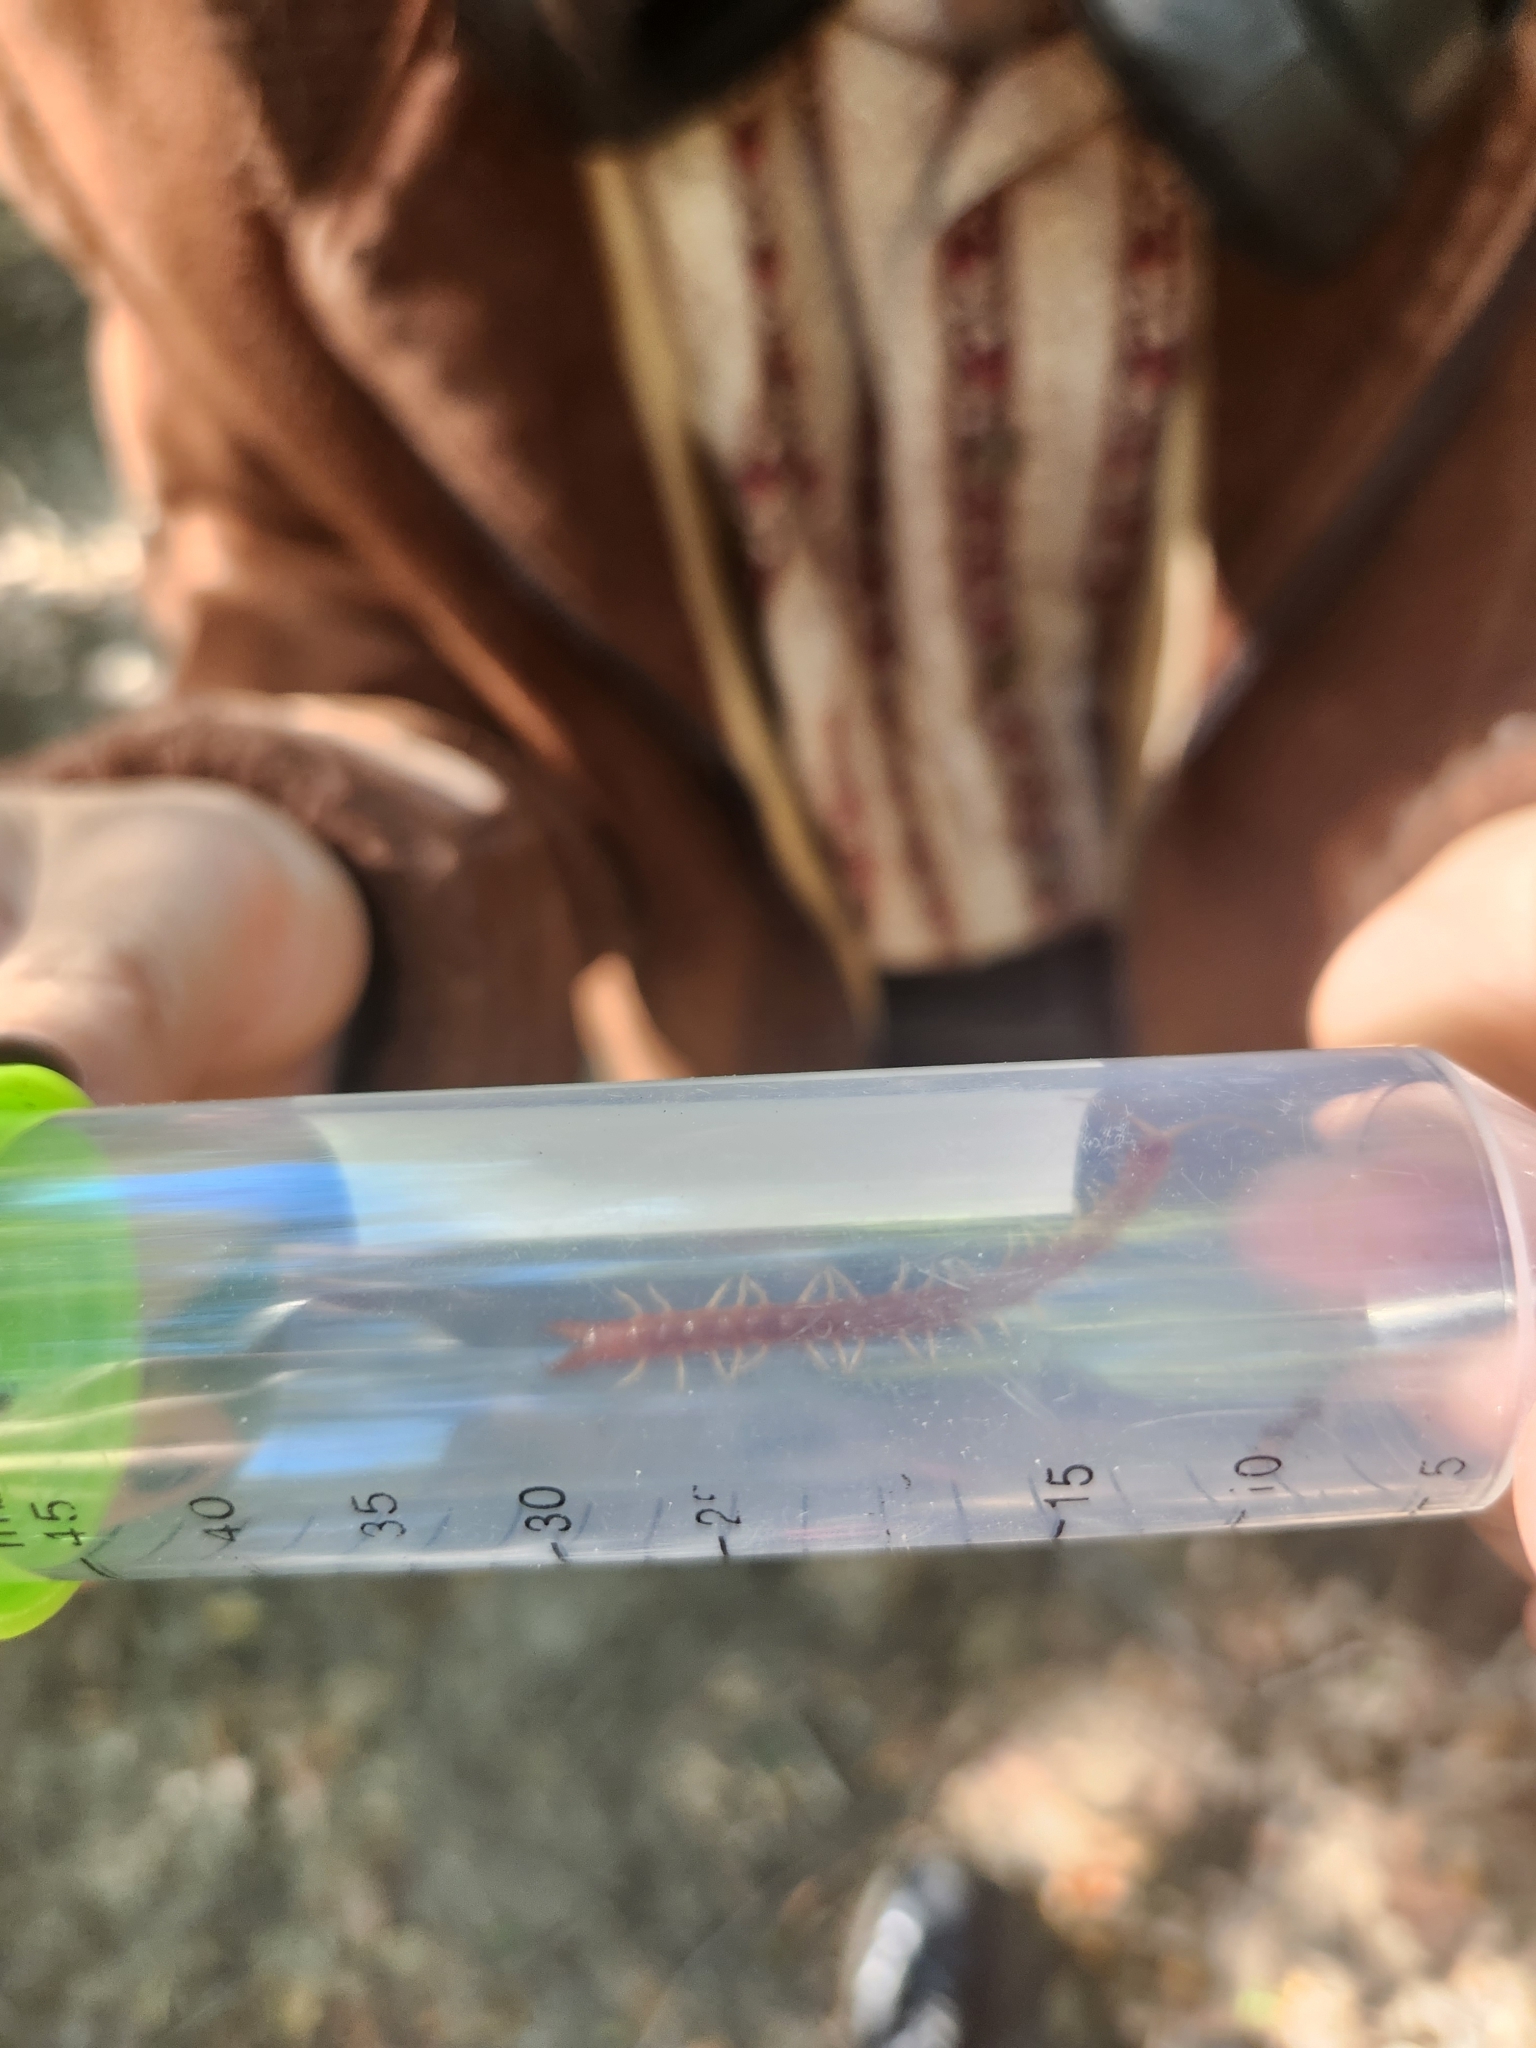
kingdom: Animalia
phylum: Arthropoda
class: Chilopoda
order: Scolopendromorpha
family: Cryptopidae
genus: Theatops
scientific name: Theatops posticus
